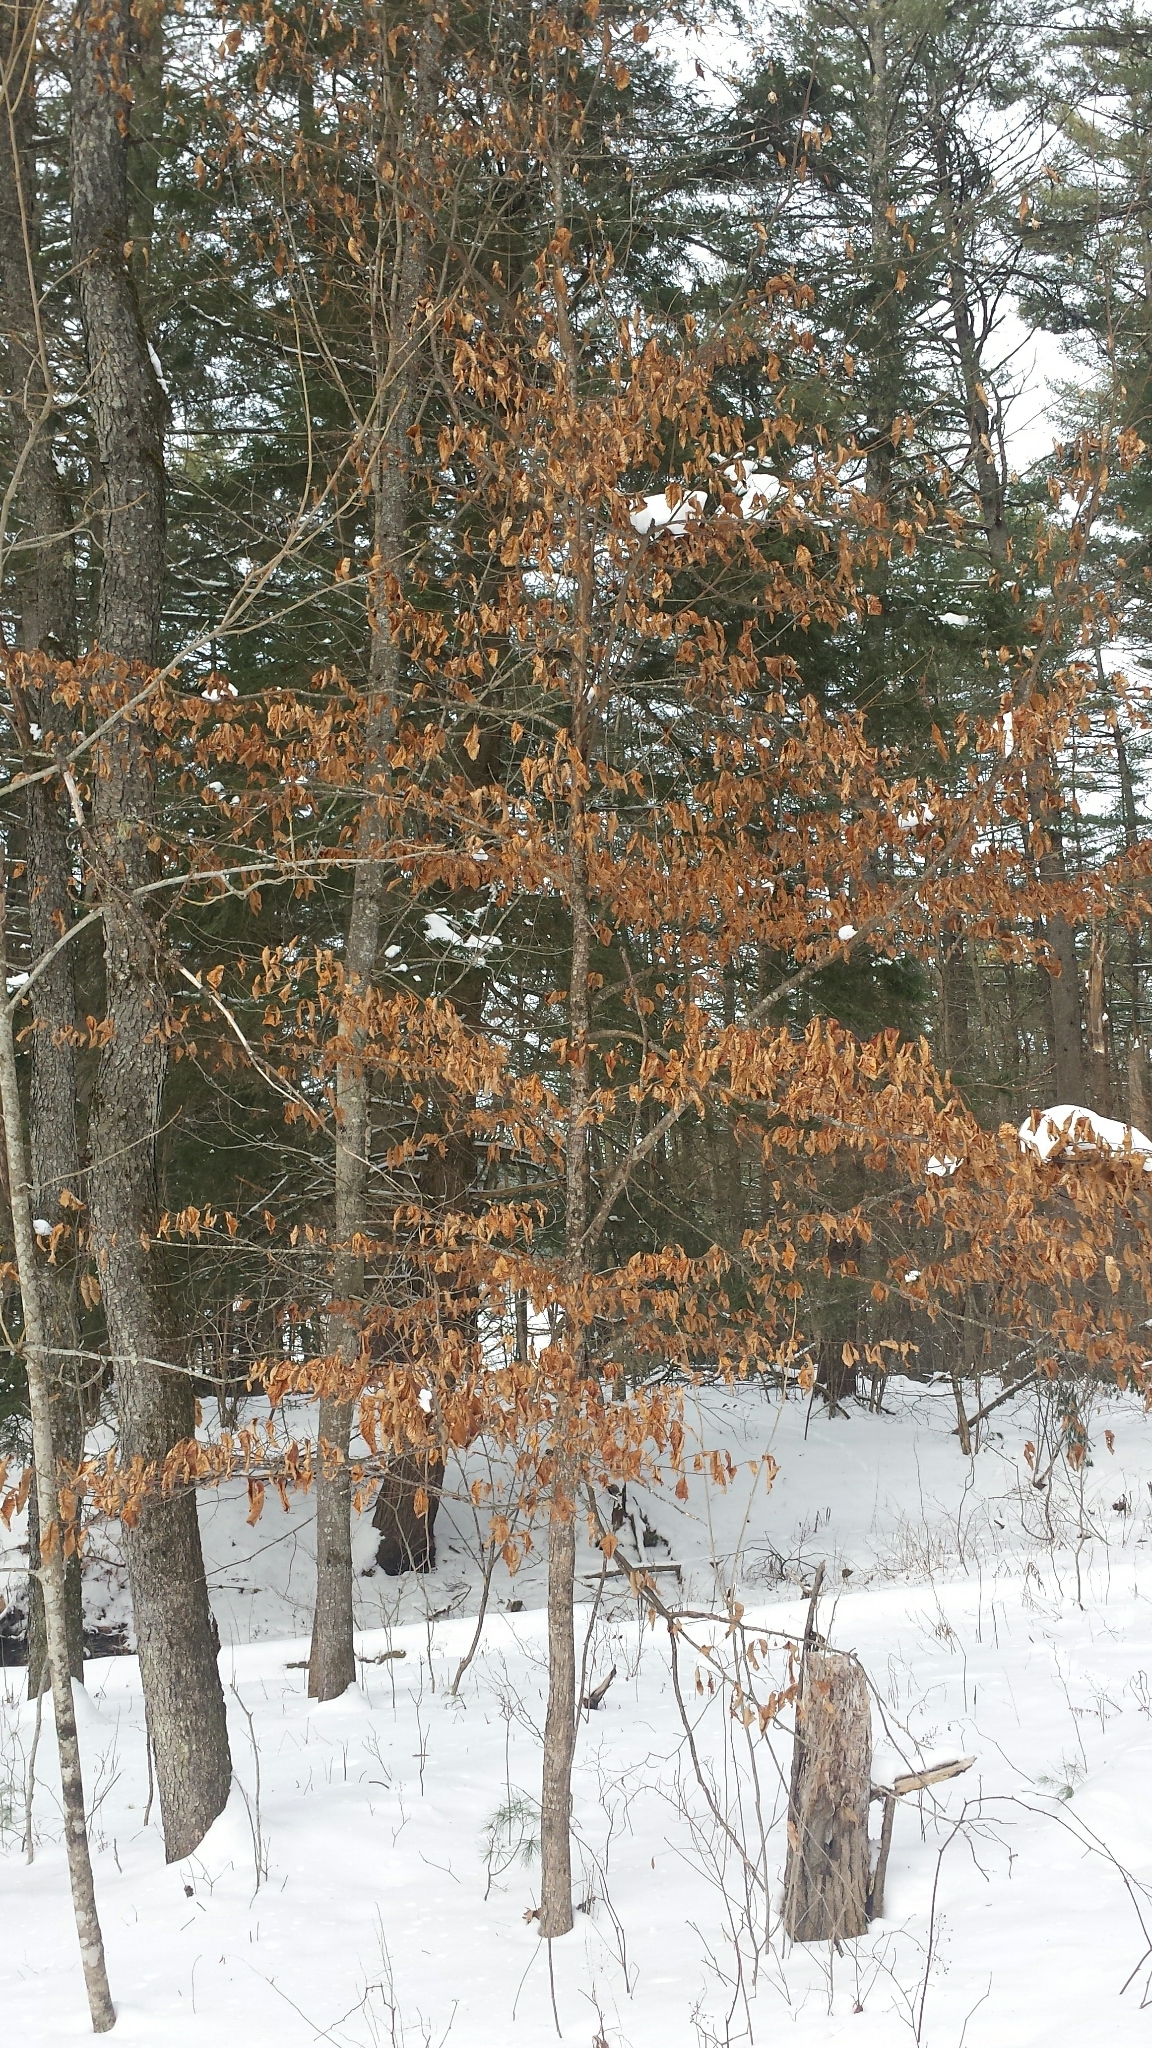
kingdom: Plantae
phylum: Tracheophyta
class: Magnoliopsida
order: Fagales
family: Betulaceae
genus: Ostrya
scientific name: Ostrya virginiana
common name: Ironwood
